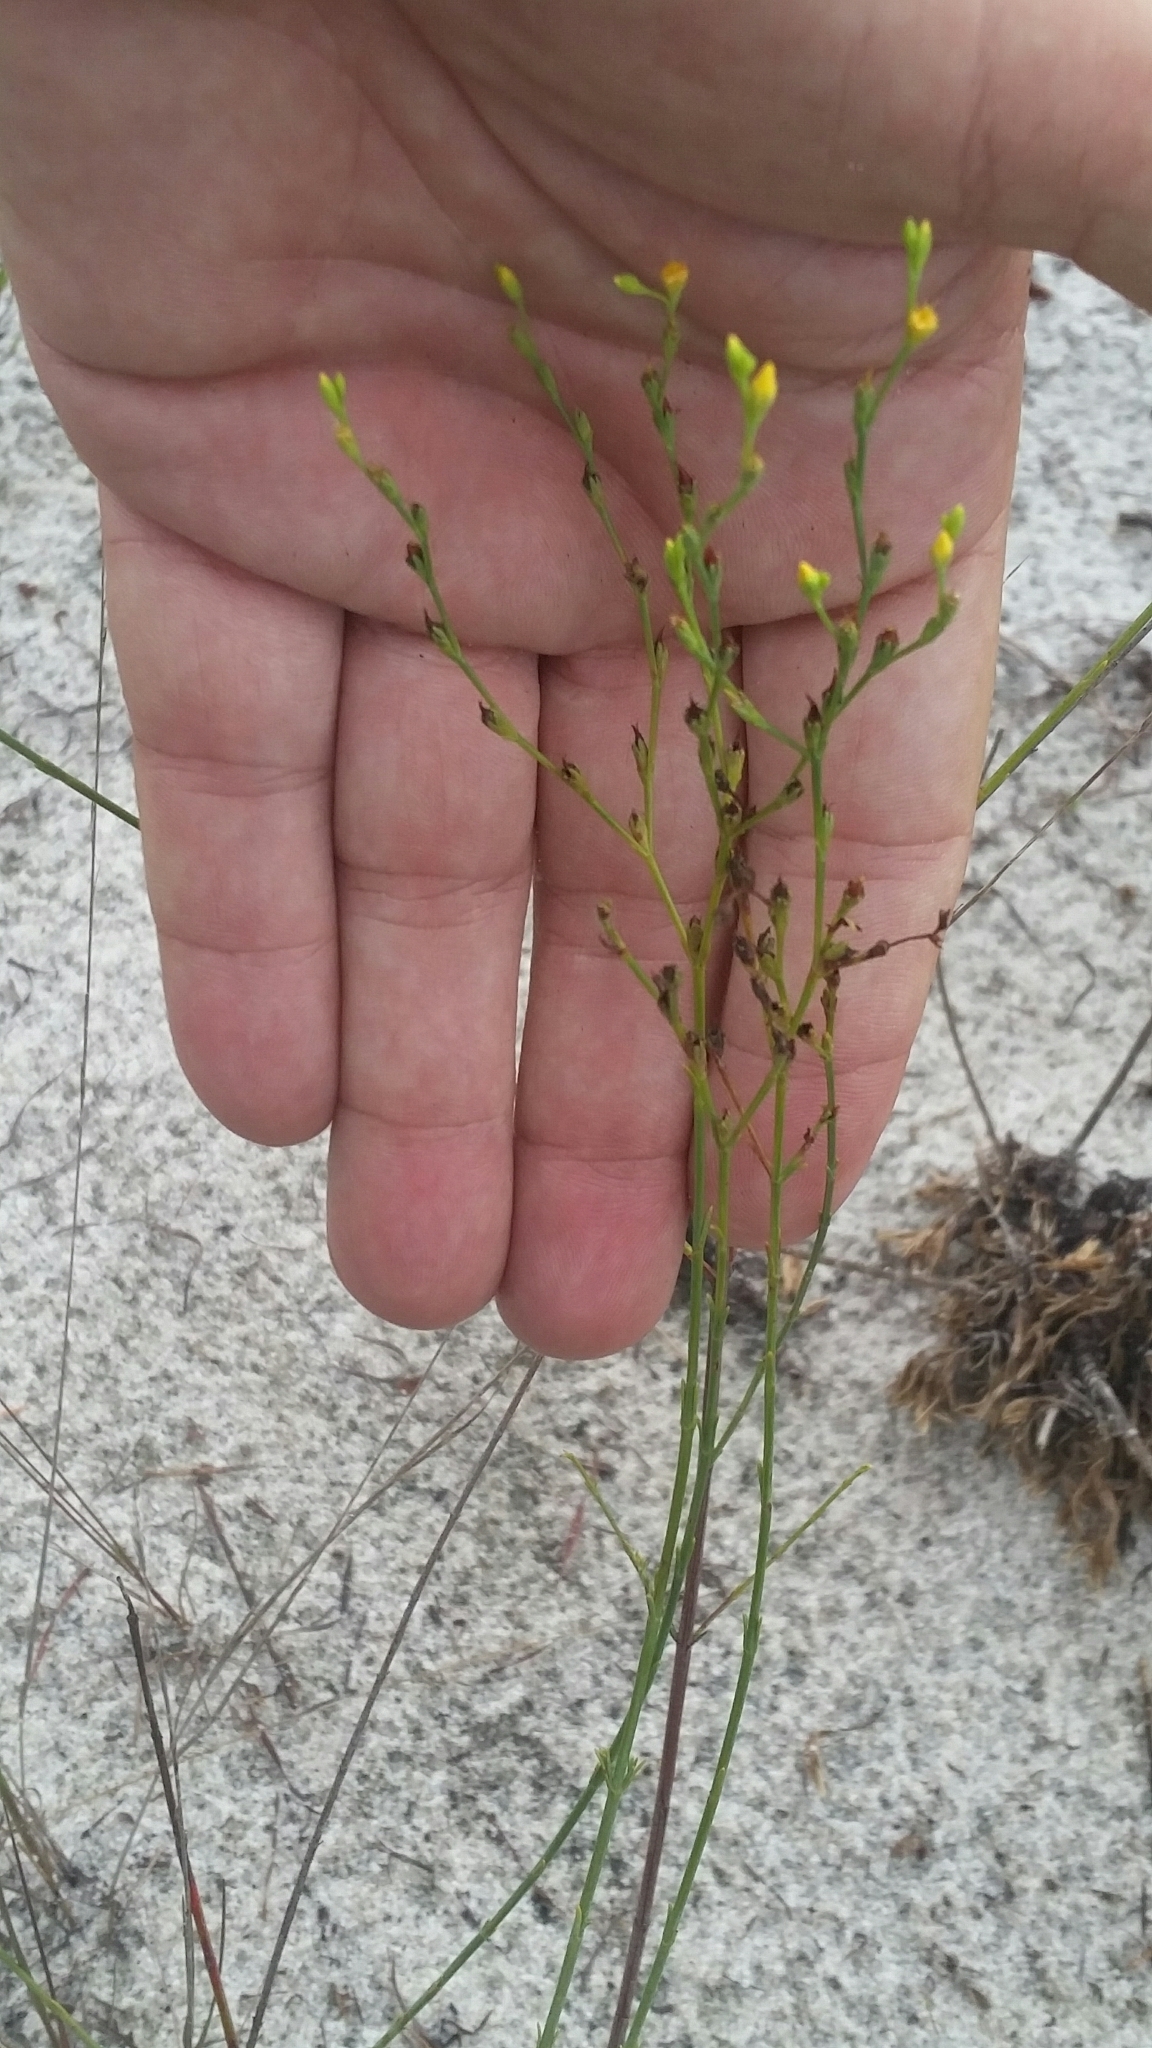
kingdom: Plantae
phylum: Tracheophyta
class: Magnoliopsida
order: Malpighiales
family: Hypericaceae
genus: Hypericum
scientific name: Hypericum cumulicola
